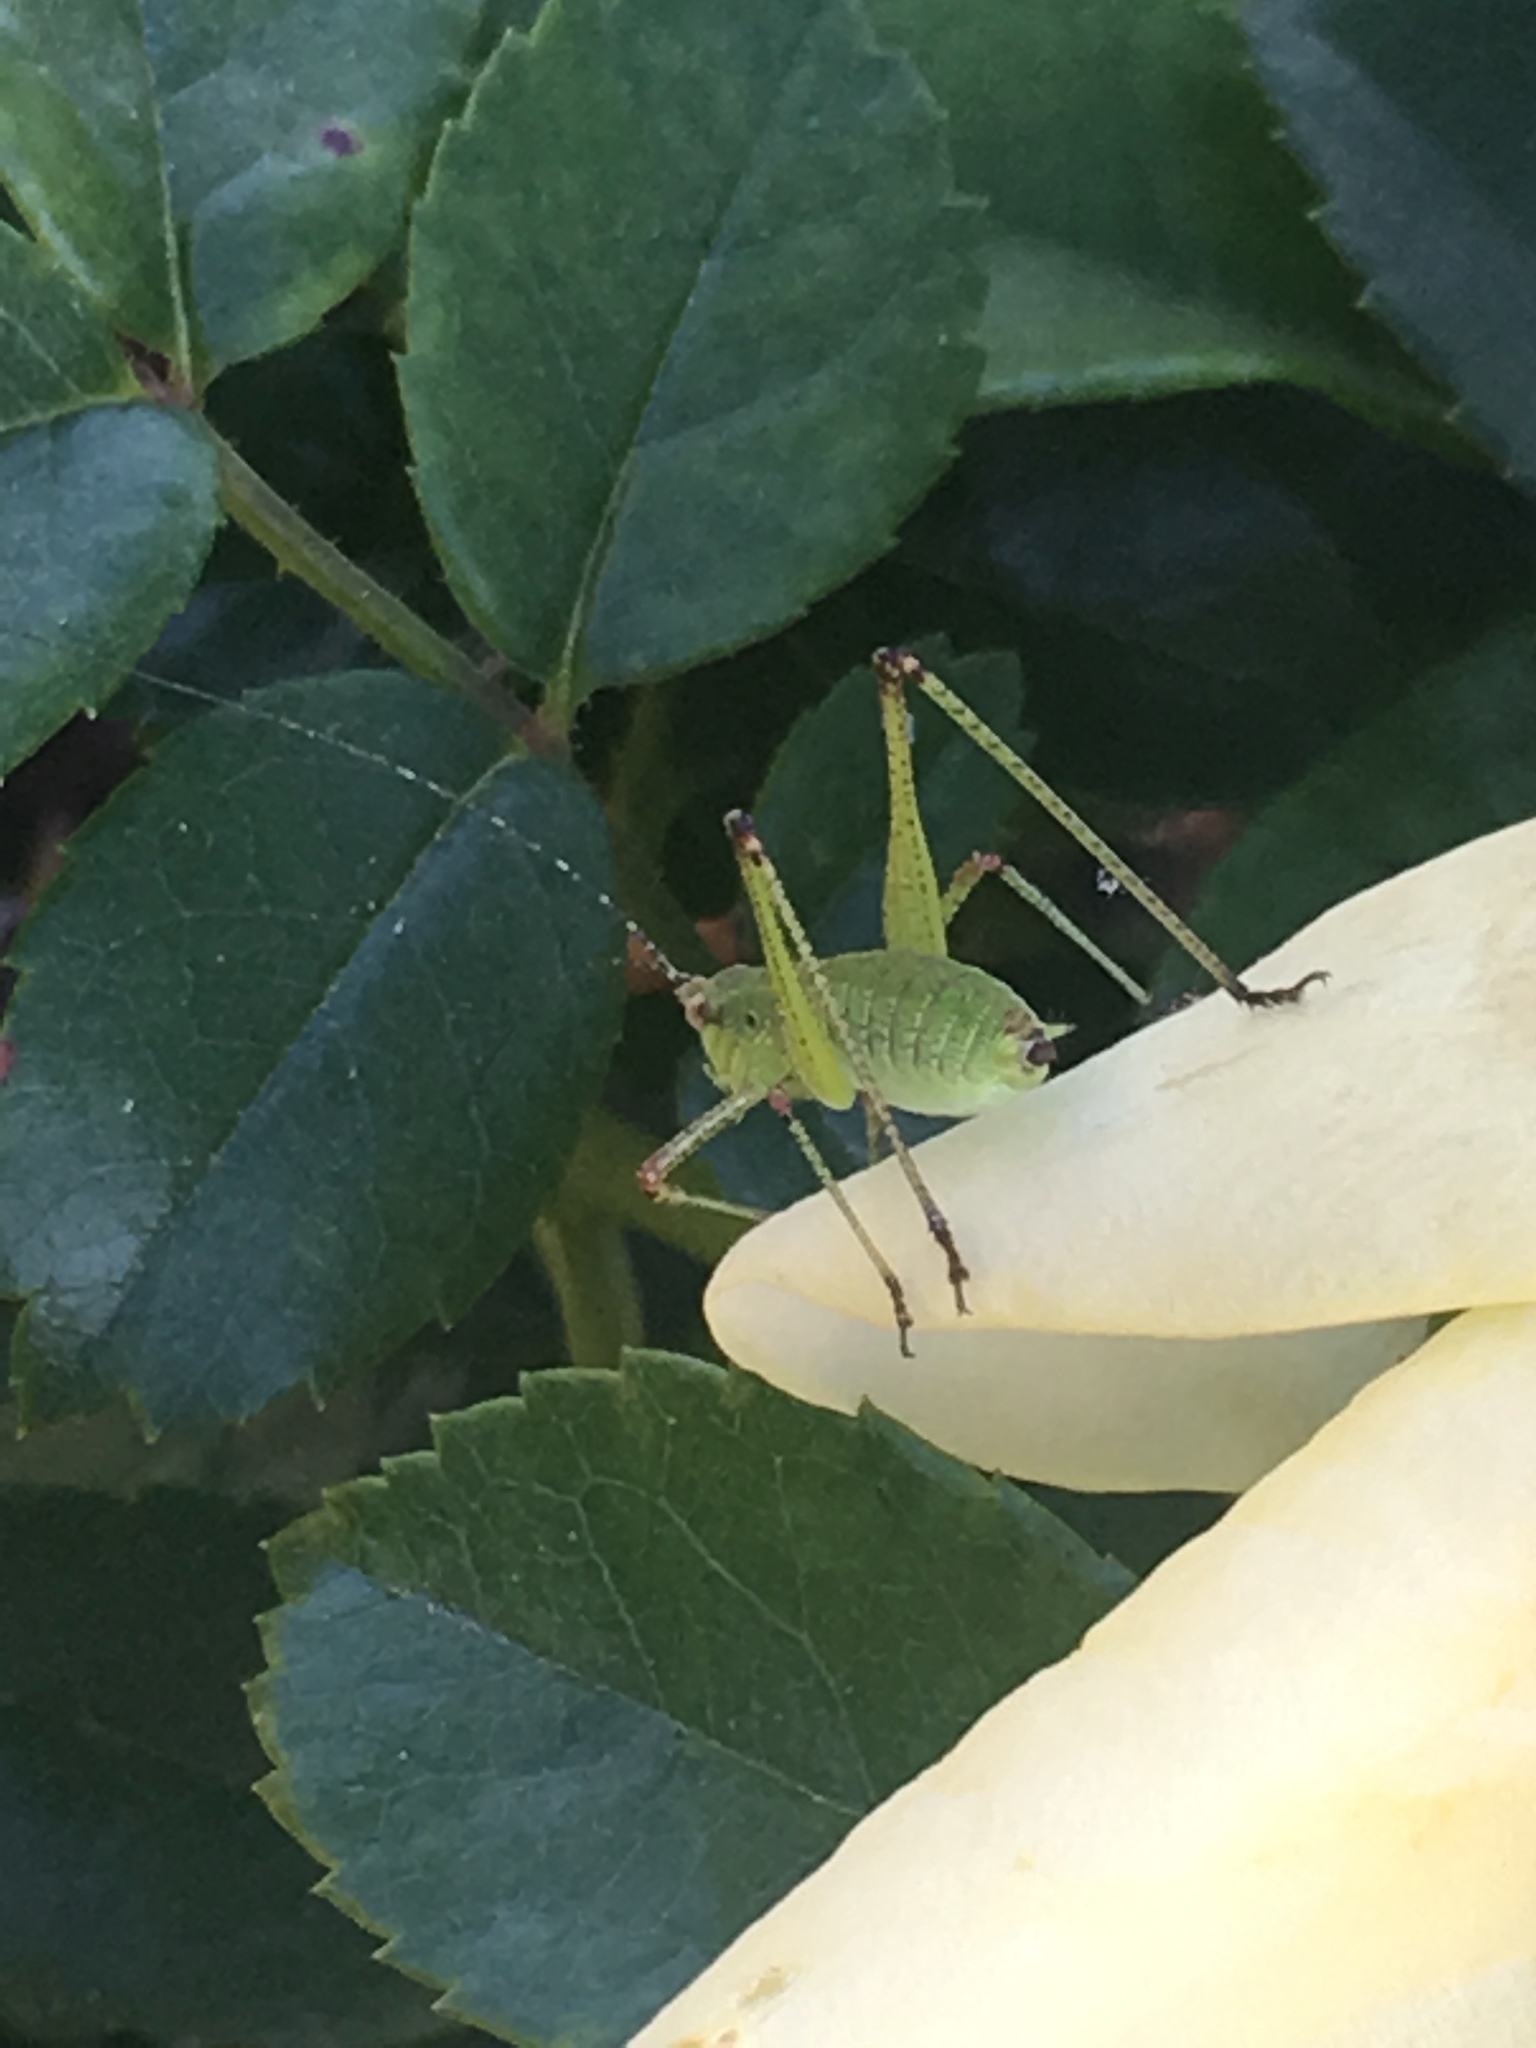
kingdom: Animalia
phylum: Arthropoda
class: Insecta
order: Orthoptera
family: Tettigoniidae
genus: Phaneroptera
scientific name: Phaneroptera nana
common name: Southern sickle bush-cricket
